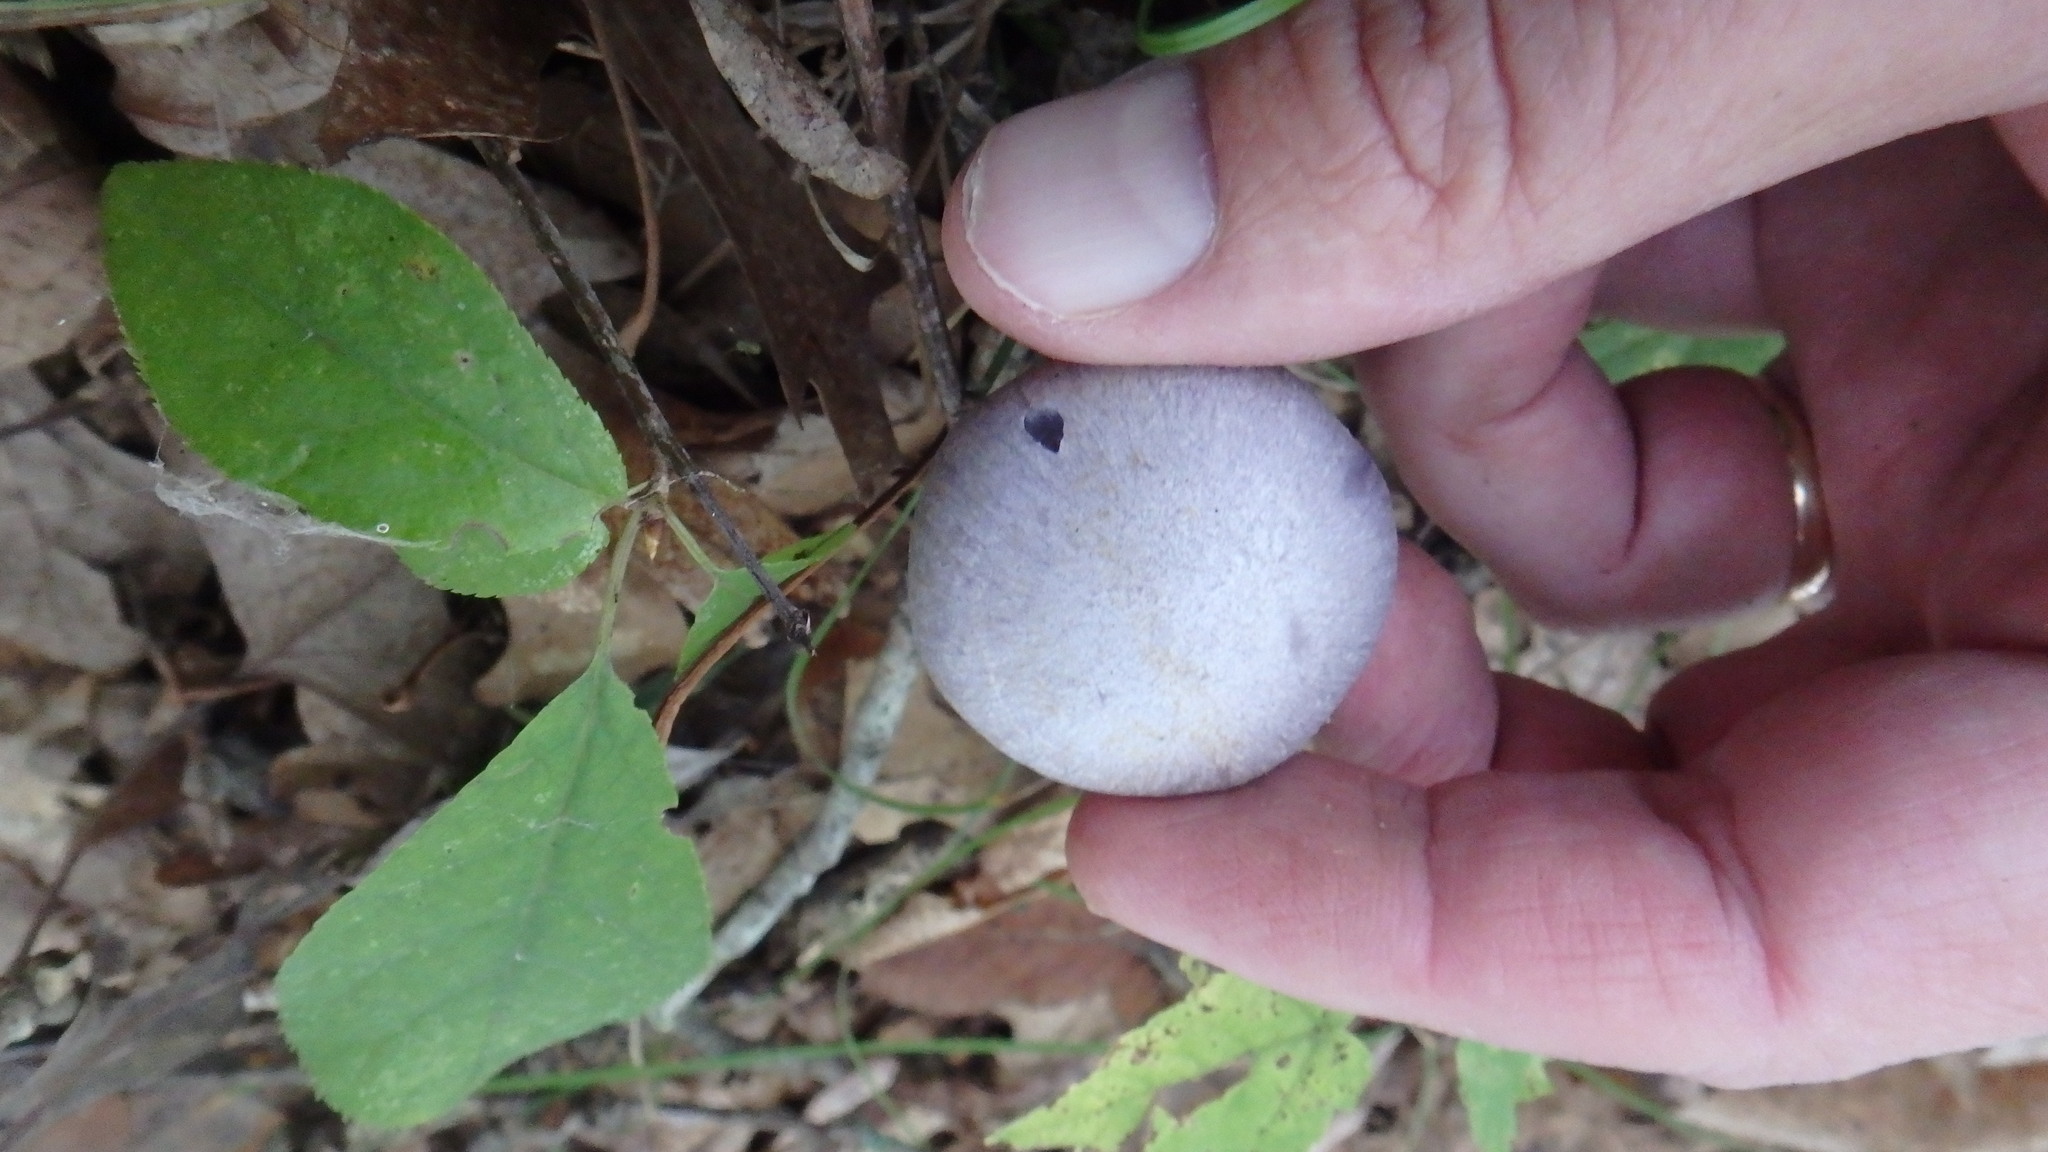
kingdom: Fungi
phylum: Basidiomycota
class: Agaricomycetes
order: Agaricales
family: Hydnangiaceae
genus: Laccaria
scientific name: Laccaria ochropurpurea
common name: Purple laccaria
